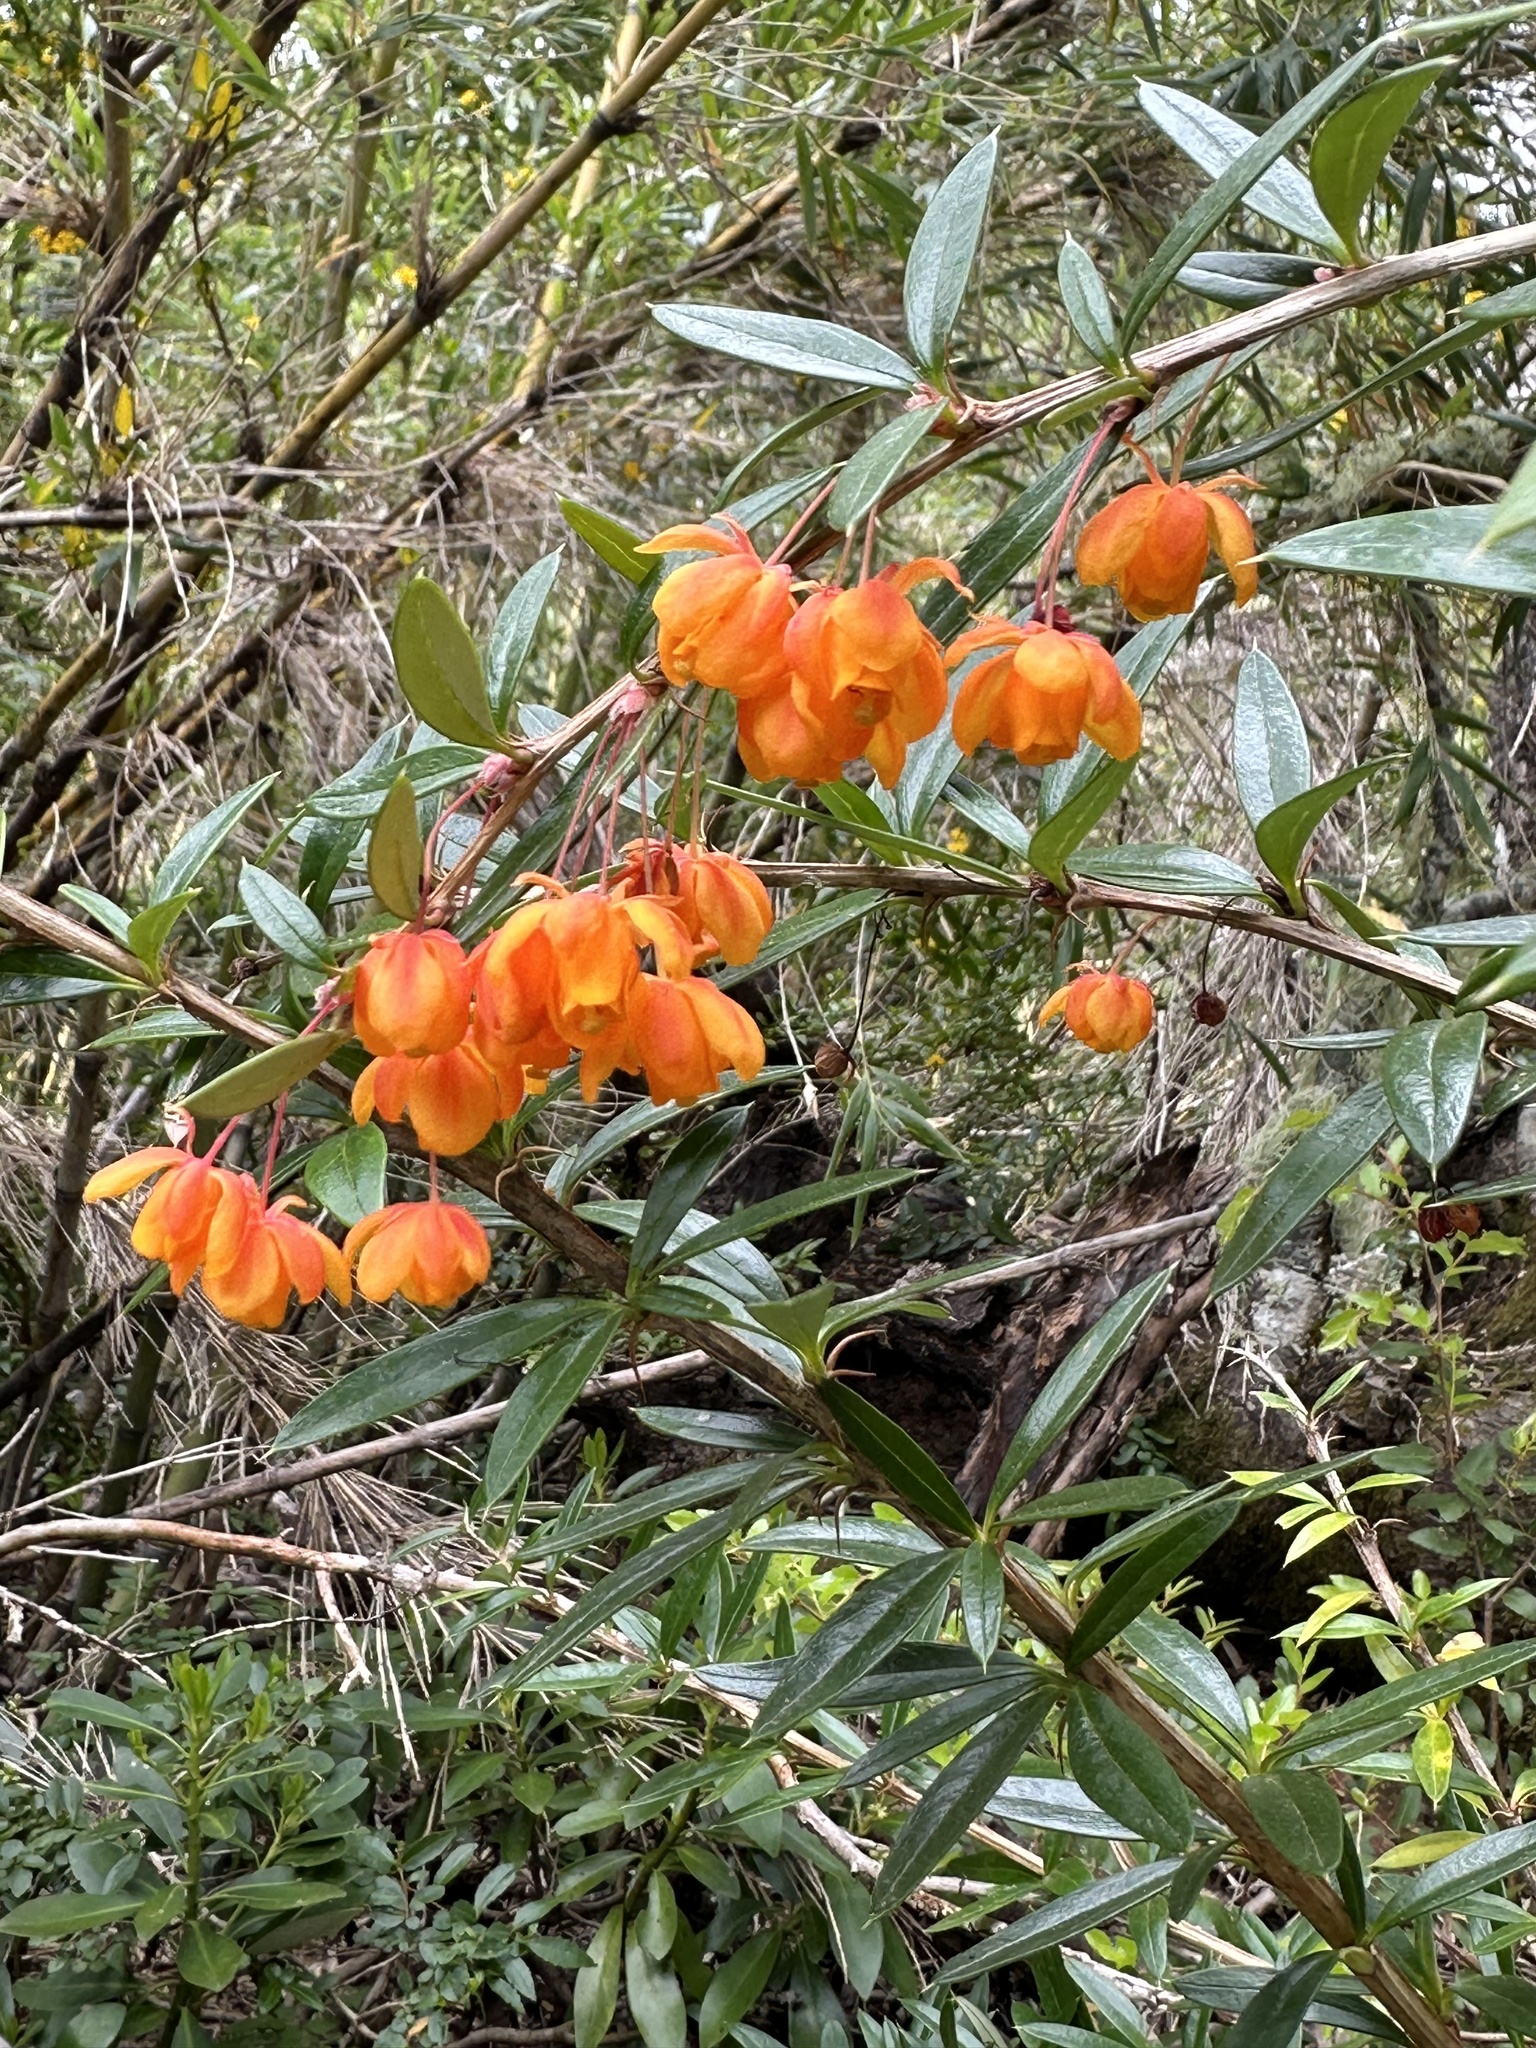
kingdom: Plantae
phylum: Tracheophyta
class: Magnoliopsida
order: Ranunculales
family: Berberidaceae
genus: Berberis
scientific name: Berberis trigona
